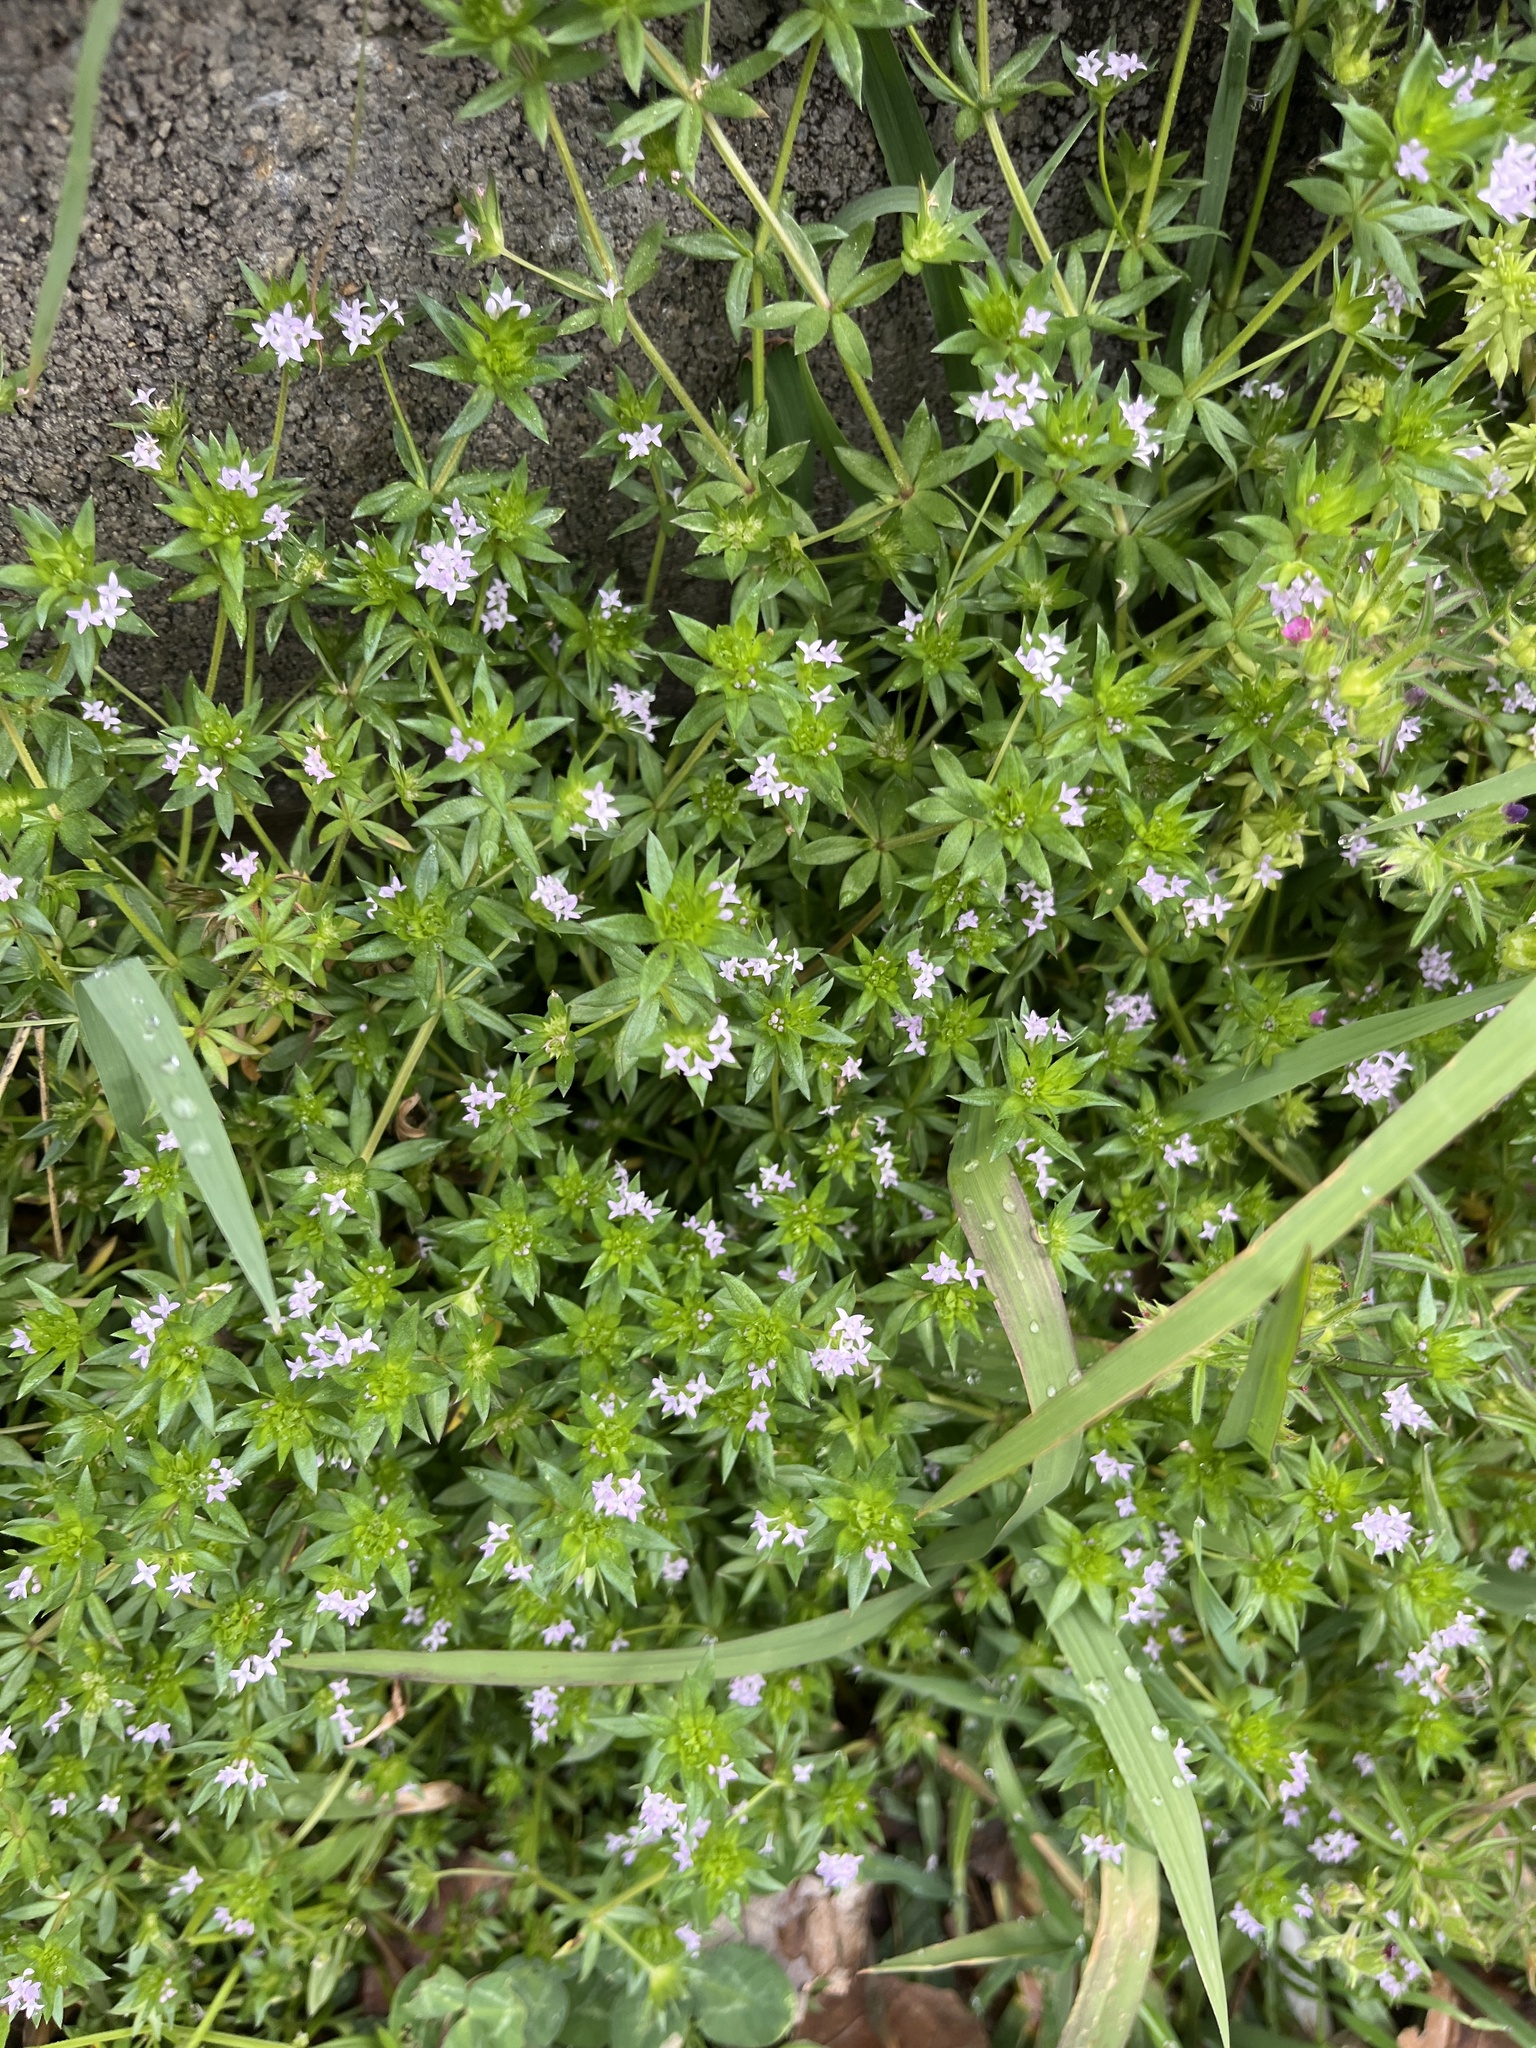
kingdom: Plantae
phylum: Tracheophyta
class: Magnoliopsida
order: Gentianales
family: Rubiaceae
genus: Sherardia
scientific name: Sherardia arvensis
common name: Field madder
